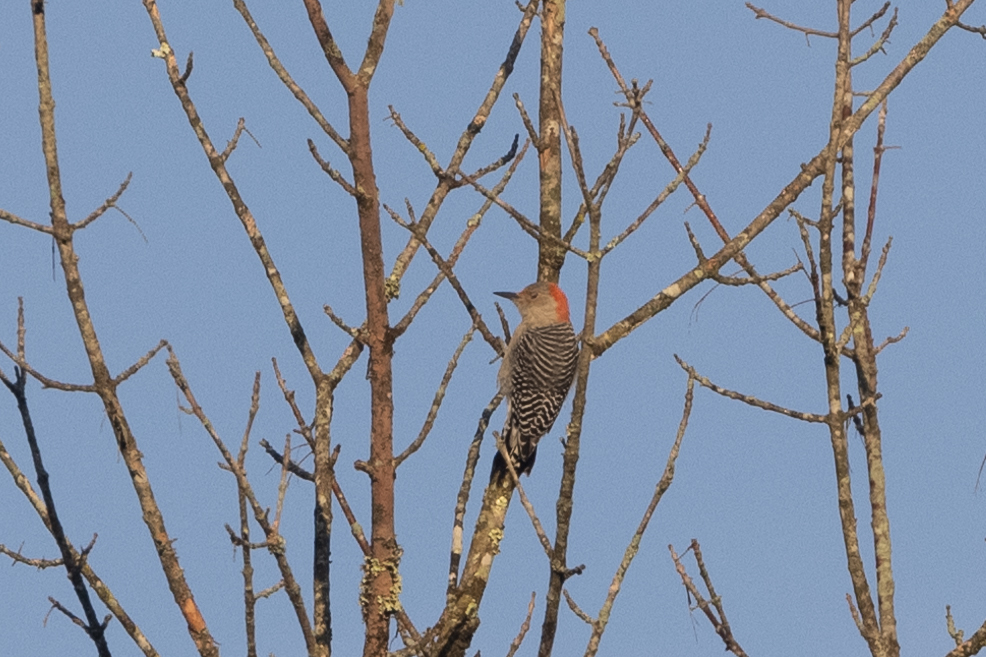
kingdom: Animalia
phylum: Chordata
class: Aves
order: Piciformes
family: Picidae
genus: Melanerpes
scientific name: Melanerpes carolinus
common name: Red-bellied woodpecker
